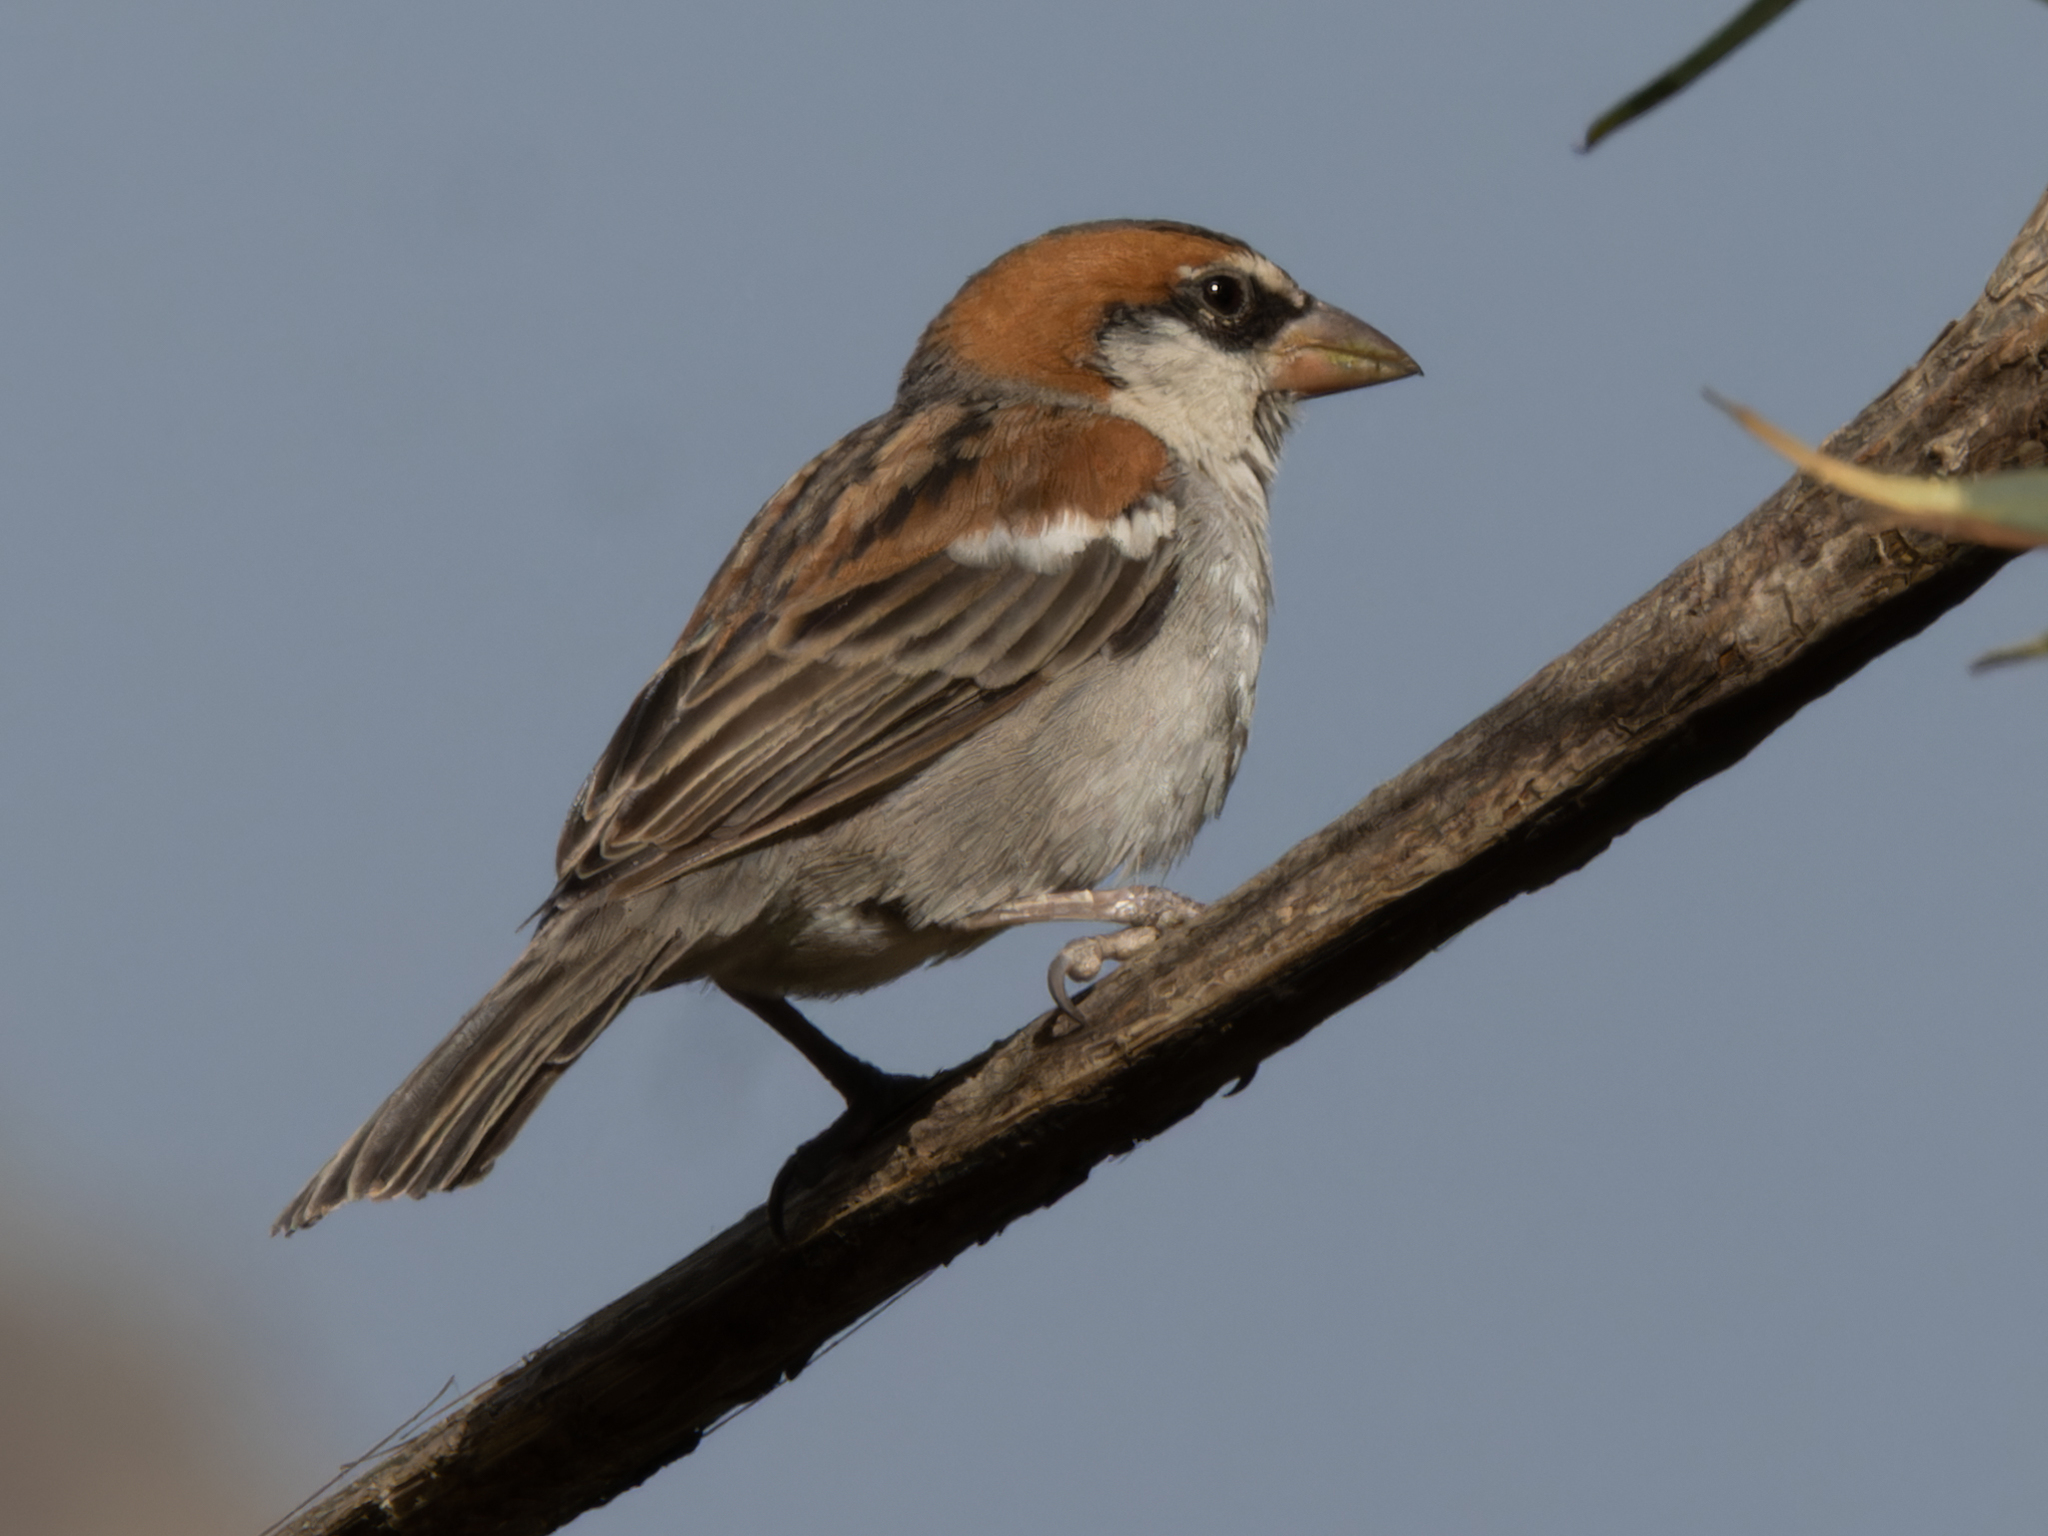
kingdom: Animalia
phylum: Chordata
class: Aves
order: Passeriformes
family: Passeridae
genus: Passer
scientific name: Passer iagoensis
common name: Iago sparrow
